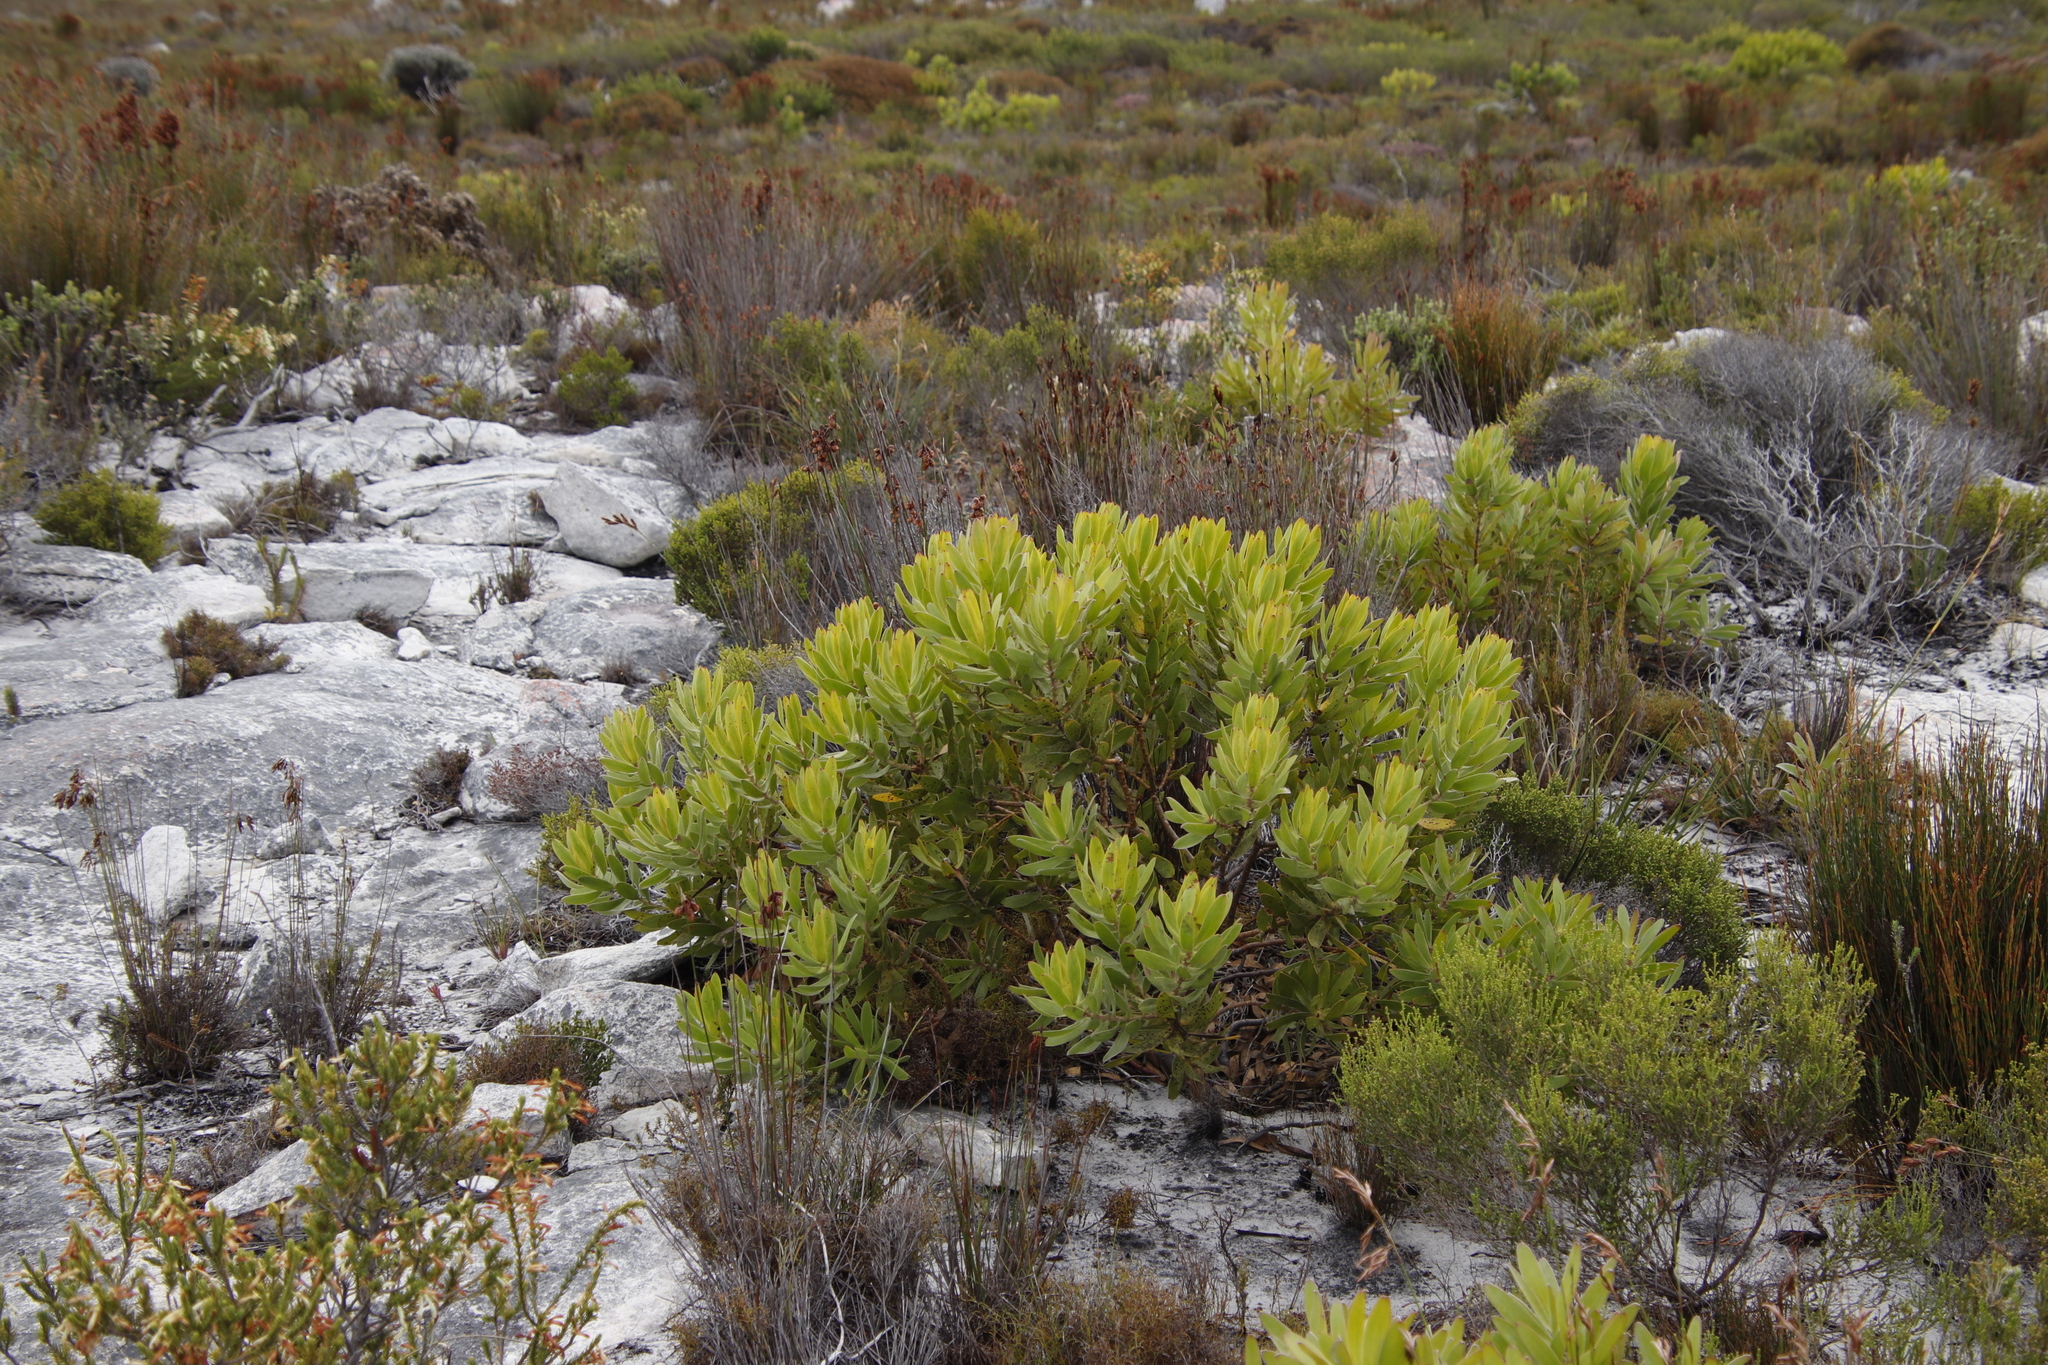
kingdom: Plantae
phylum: Tracheophyta
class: Magnoliopsida
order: Proteales
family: Proteaceae
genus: Leucadendron
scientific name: Leucadendron laureolum
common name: Golden sunshinebush
